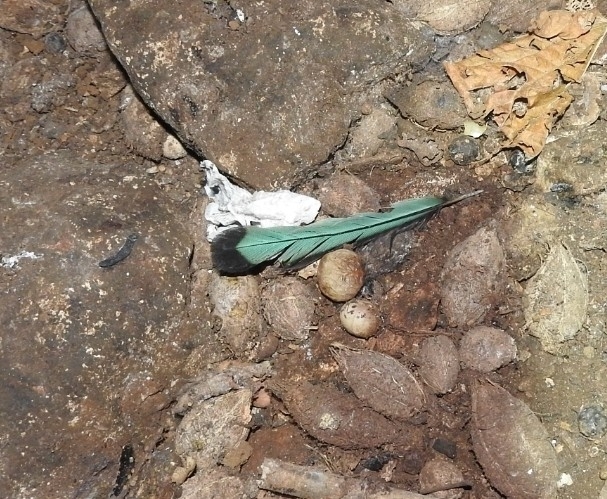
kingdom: Animalia
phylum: Chordata
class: Aves
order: Coraciiformes
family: Momotidae
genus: Eumomota
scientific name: Eumomota superciliosa
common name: Turquoise-browed motmot
